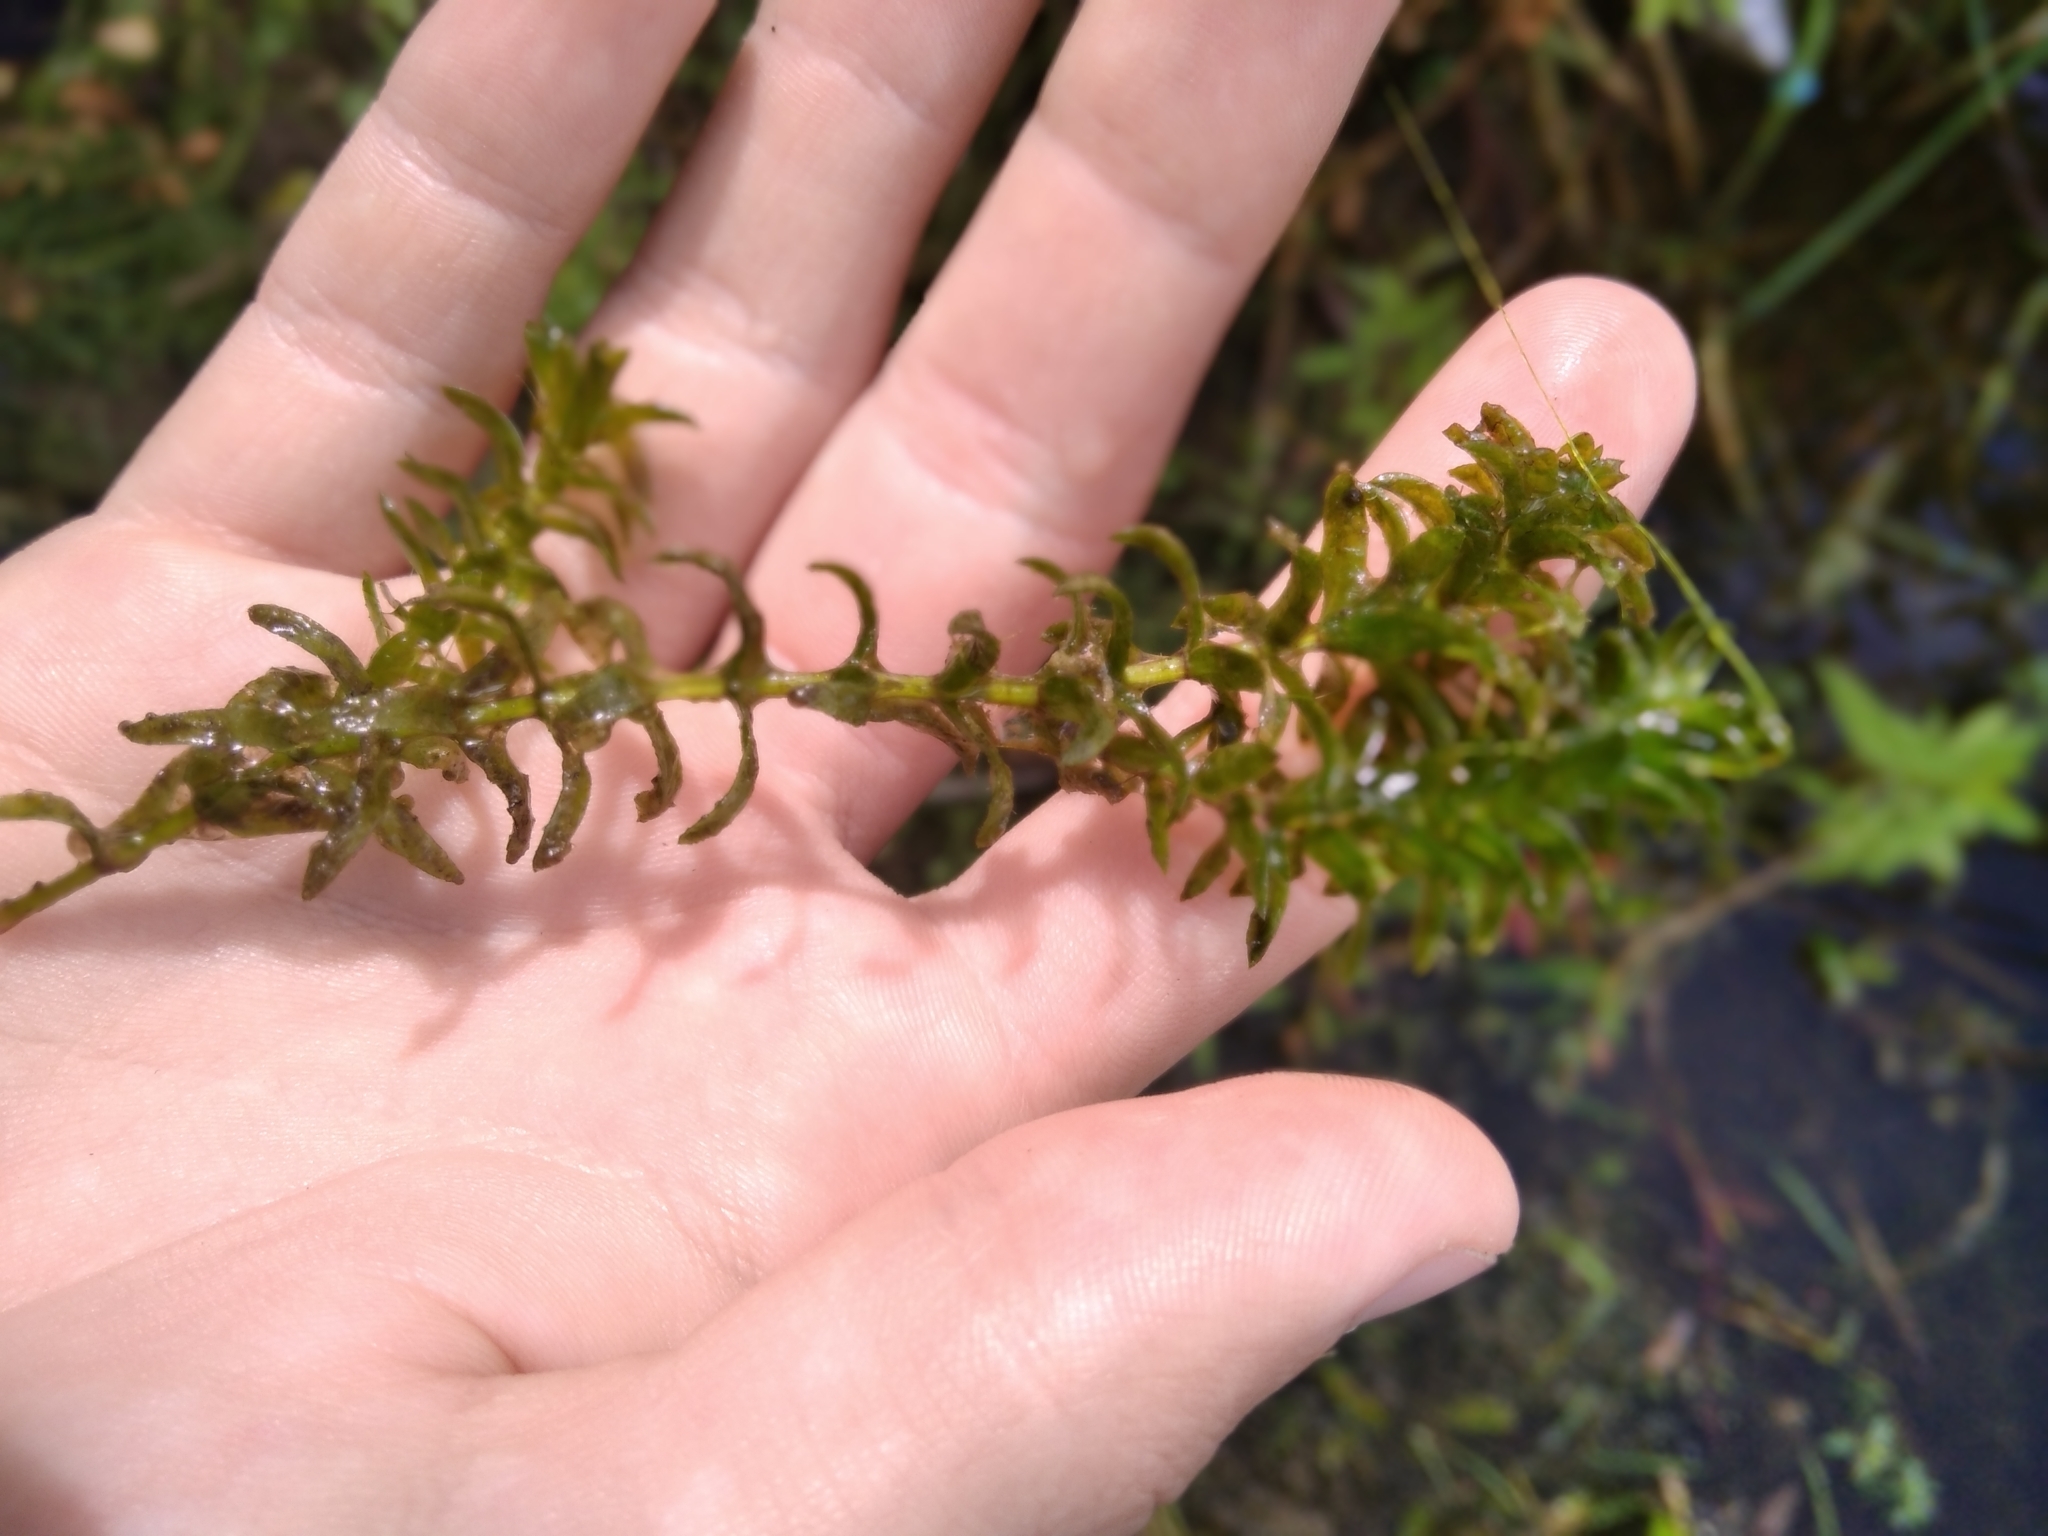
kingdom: Plantae
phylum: Tracheophyta
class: Liliopsida
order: Alismatales
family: Hydrocharitaceae
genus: Elodea
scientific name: Elodea canadensis
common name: Canadian waterweed
